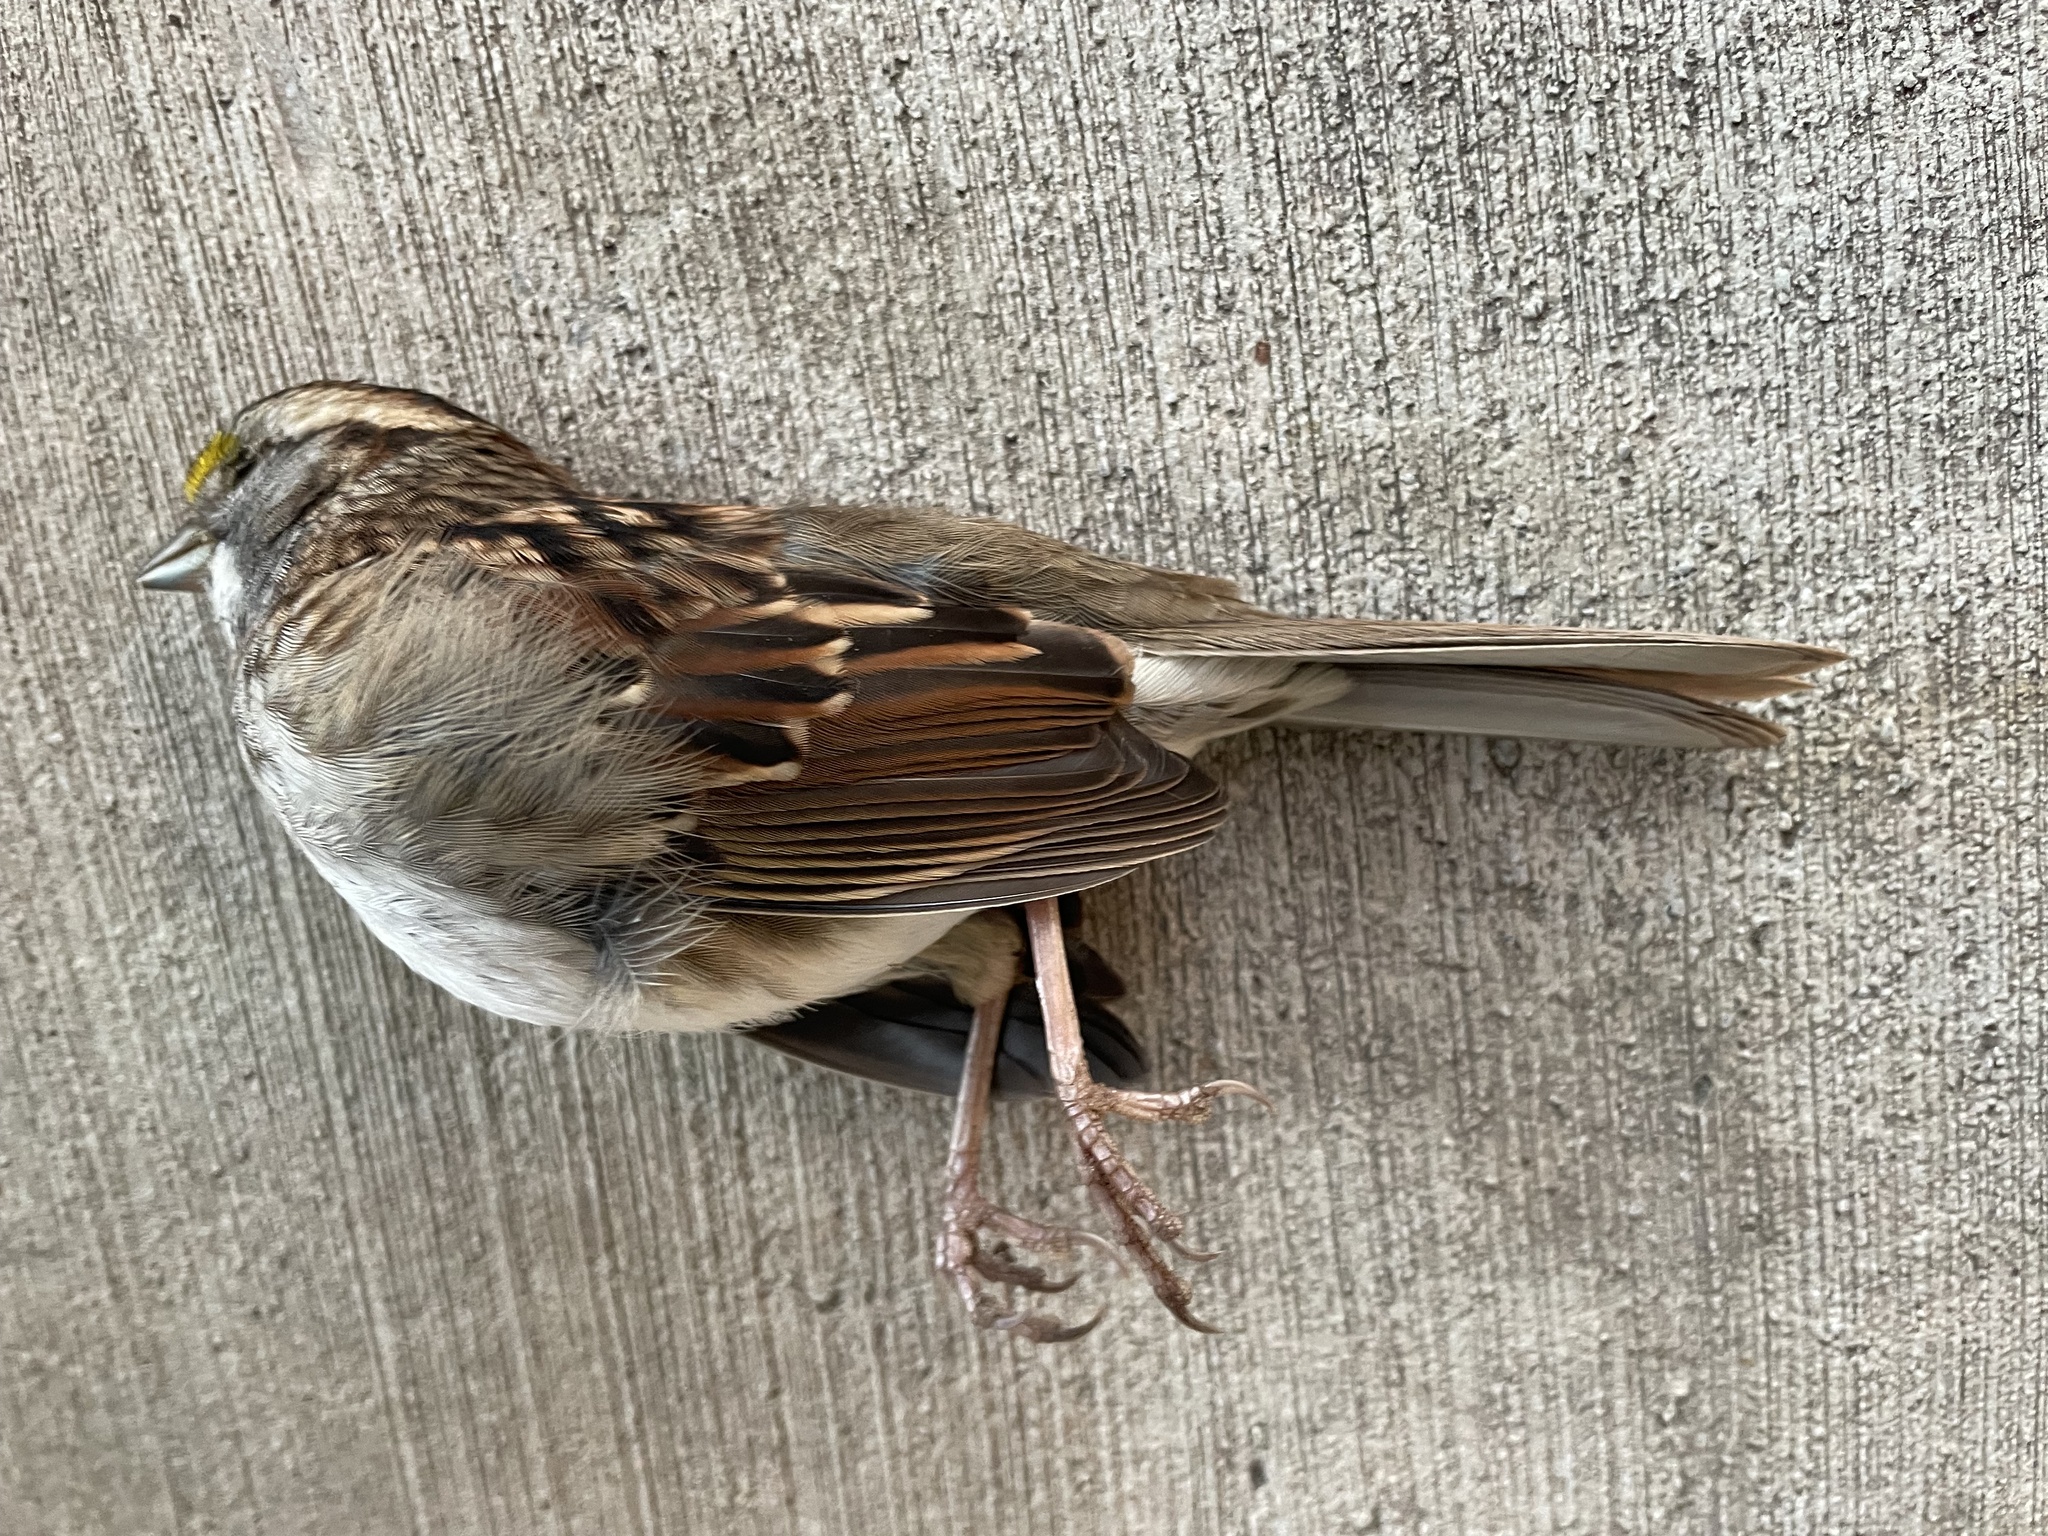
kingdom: Animalia
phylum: Chordata
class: Aves
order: Passeriformes
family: Passerellidae
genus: Zonotrichia
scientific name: Zonotrichia albicollis
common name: White-throated sparrow
